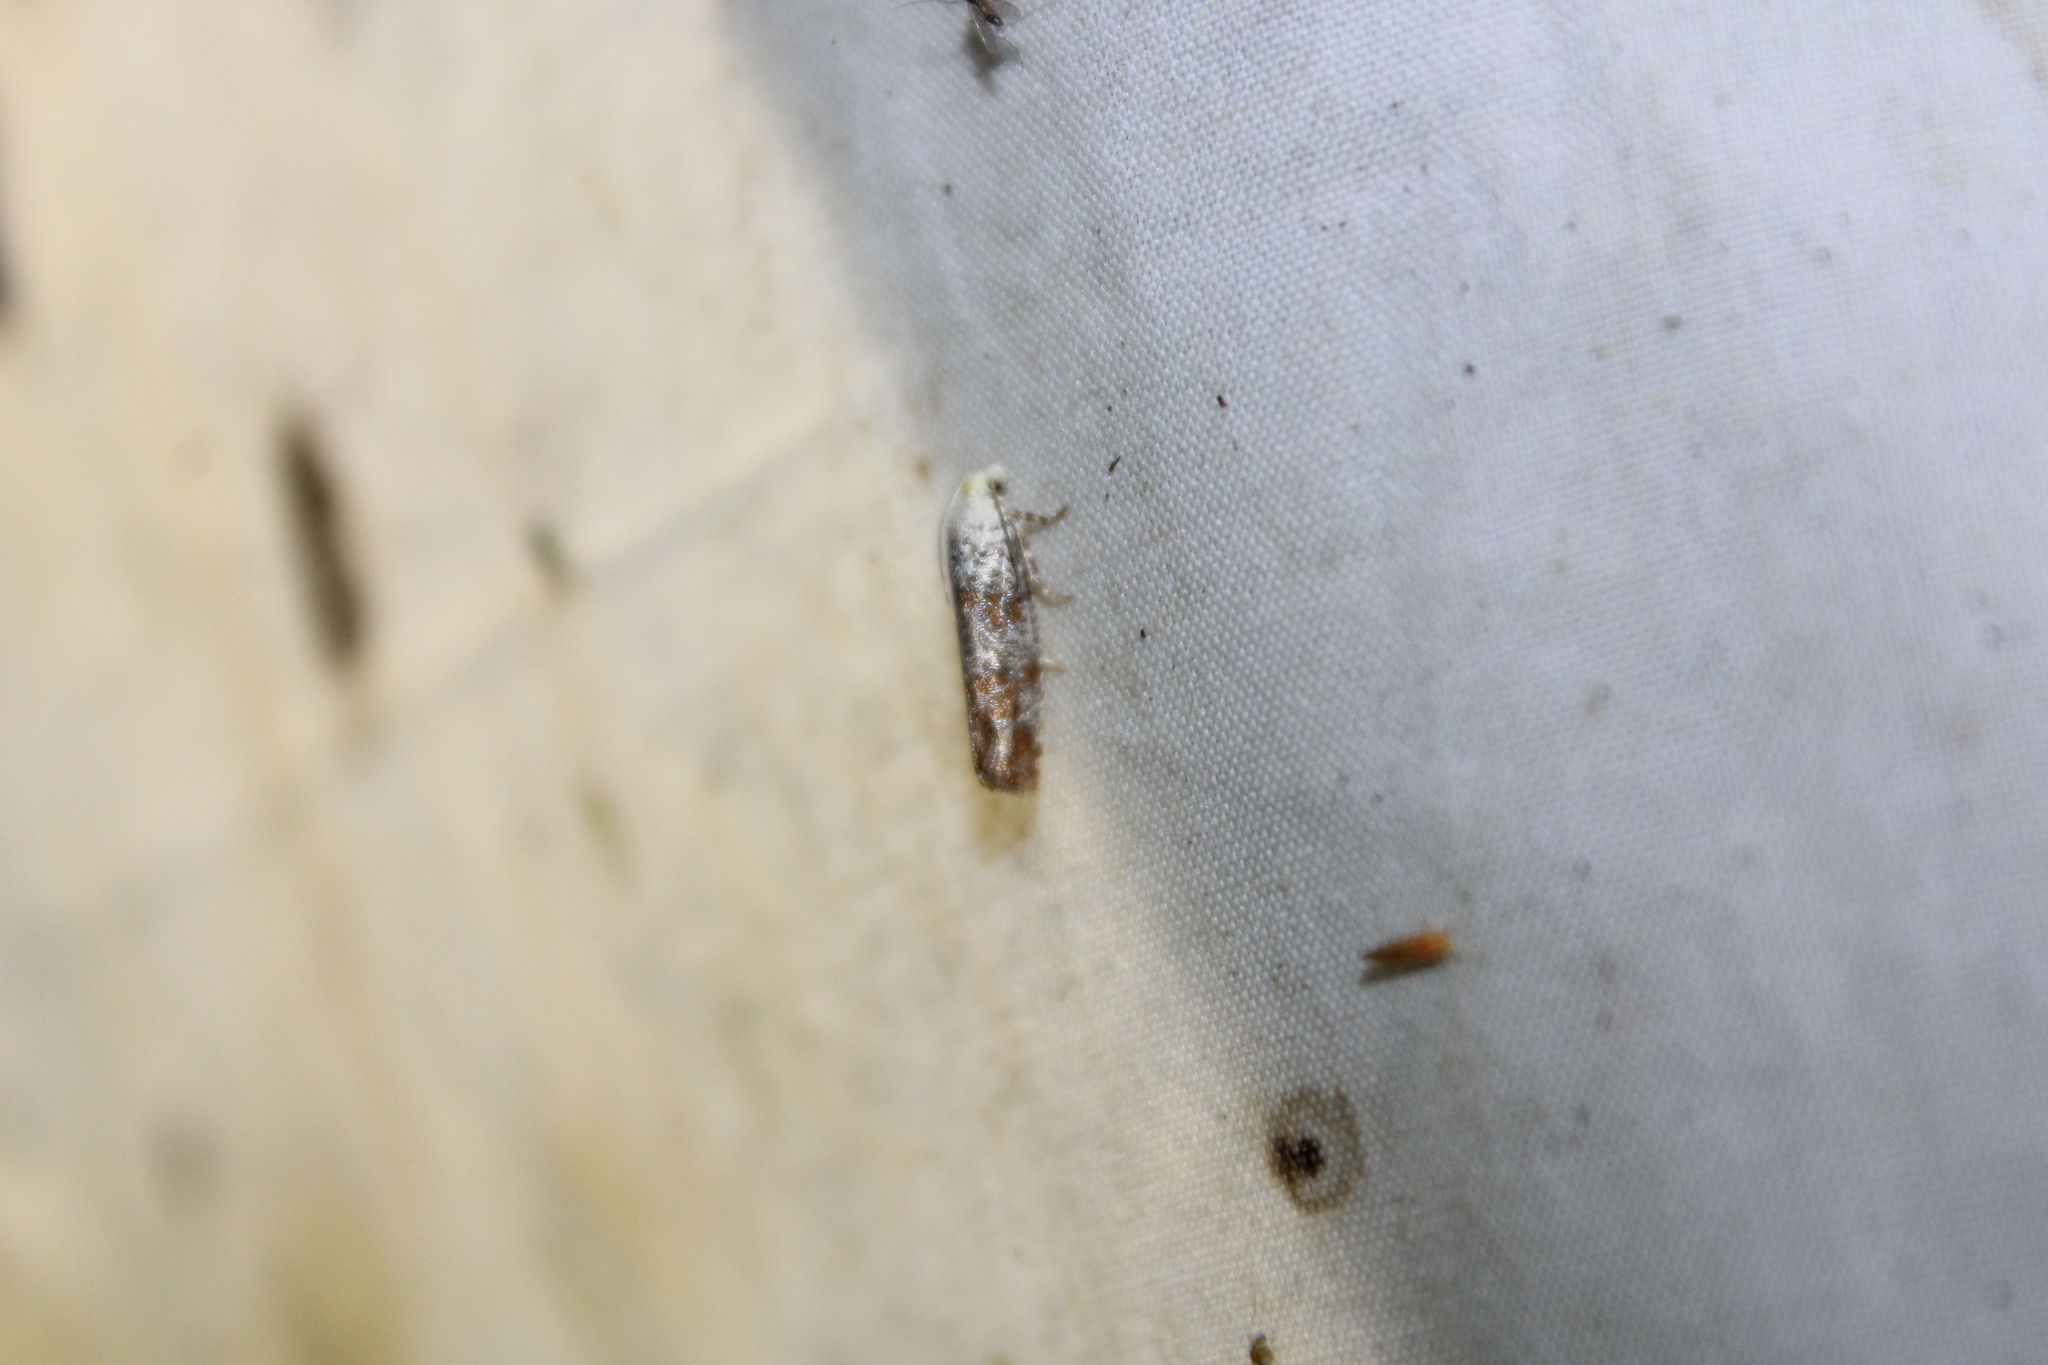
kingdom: Animalia
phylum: Arthropoda
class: Insecta
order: Lepidoptera
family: Tortricidae
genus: Retinia
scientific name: Retinia comstockiana
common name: Pitch twig moth
